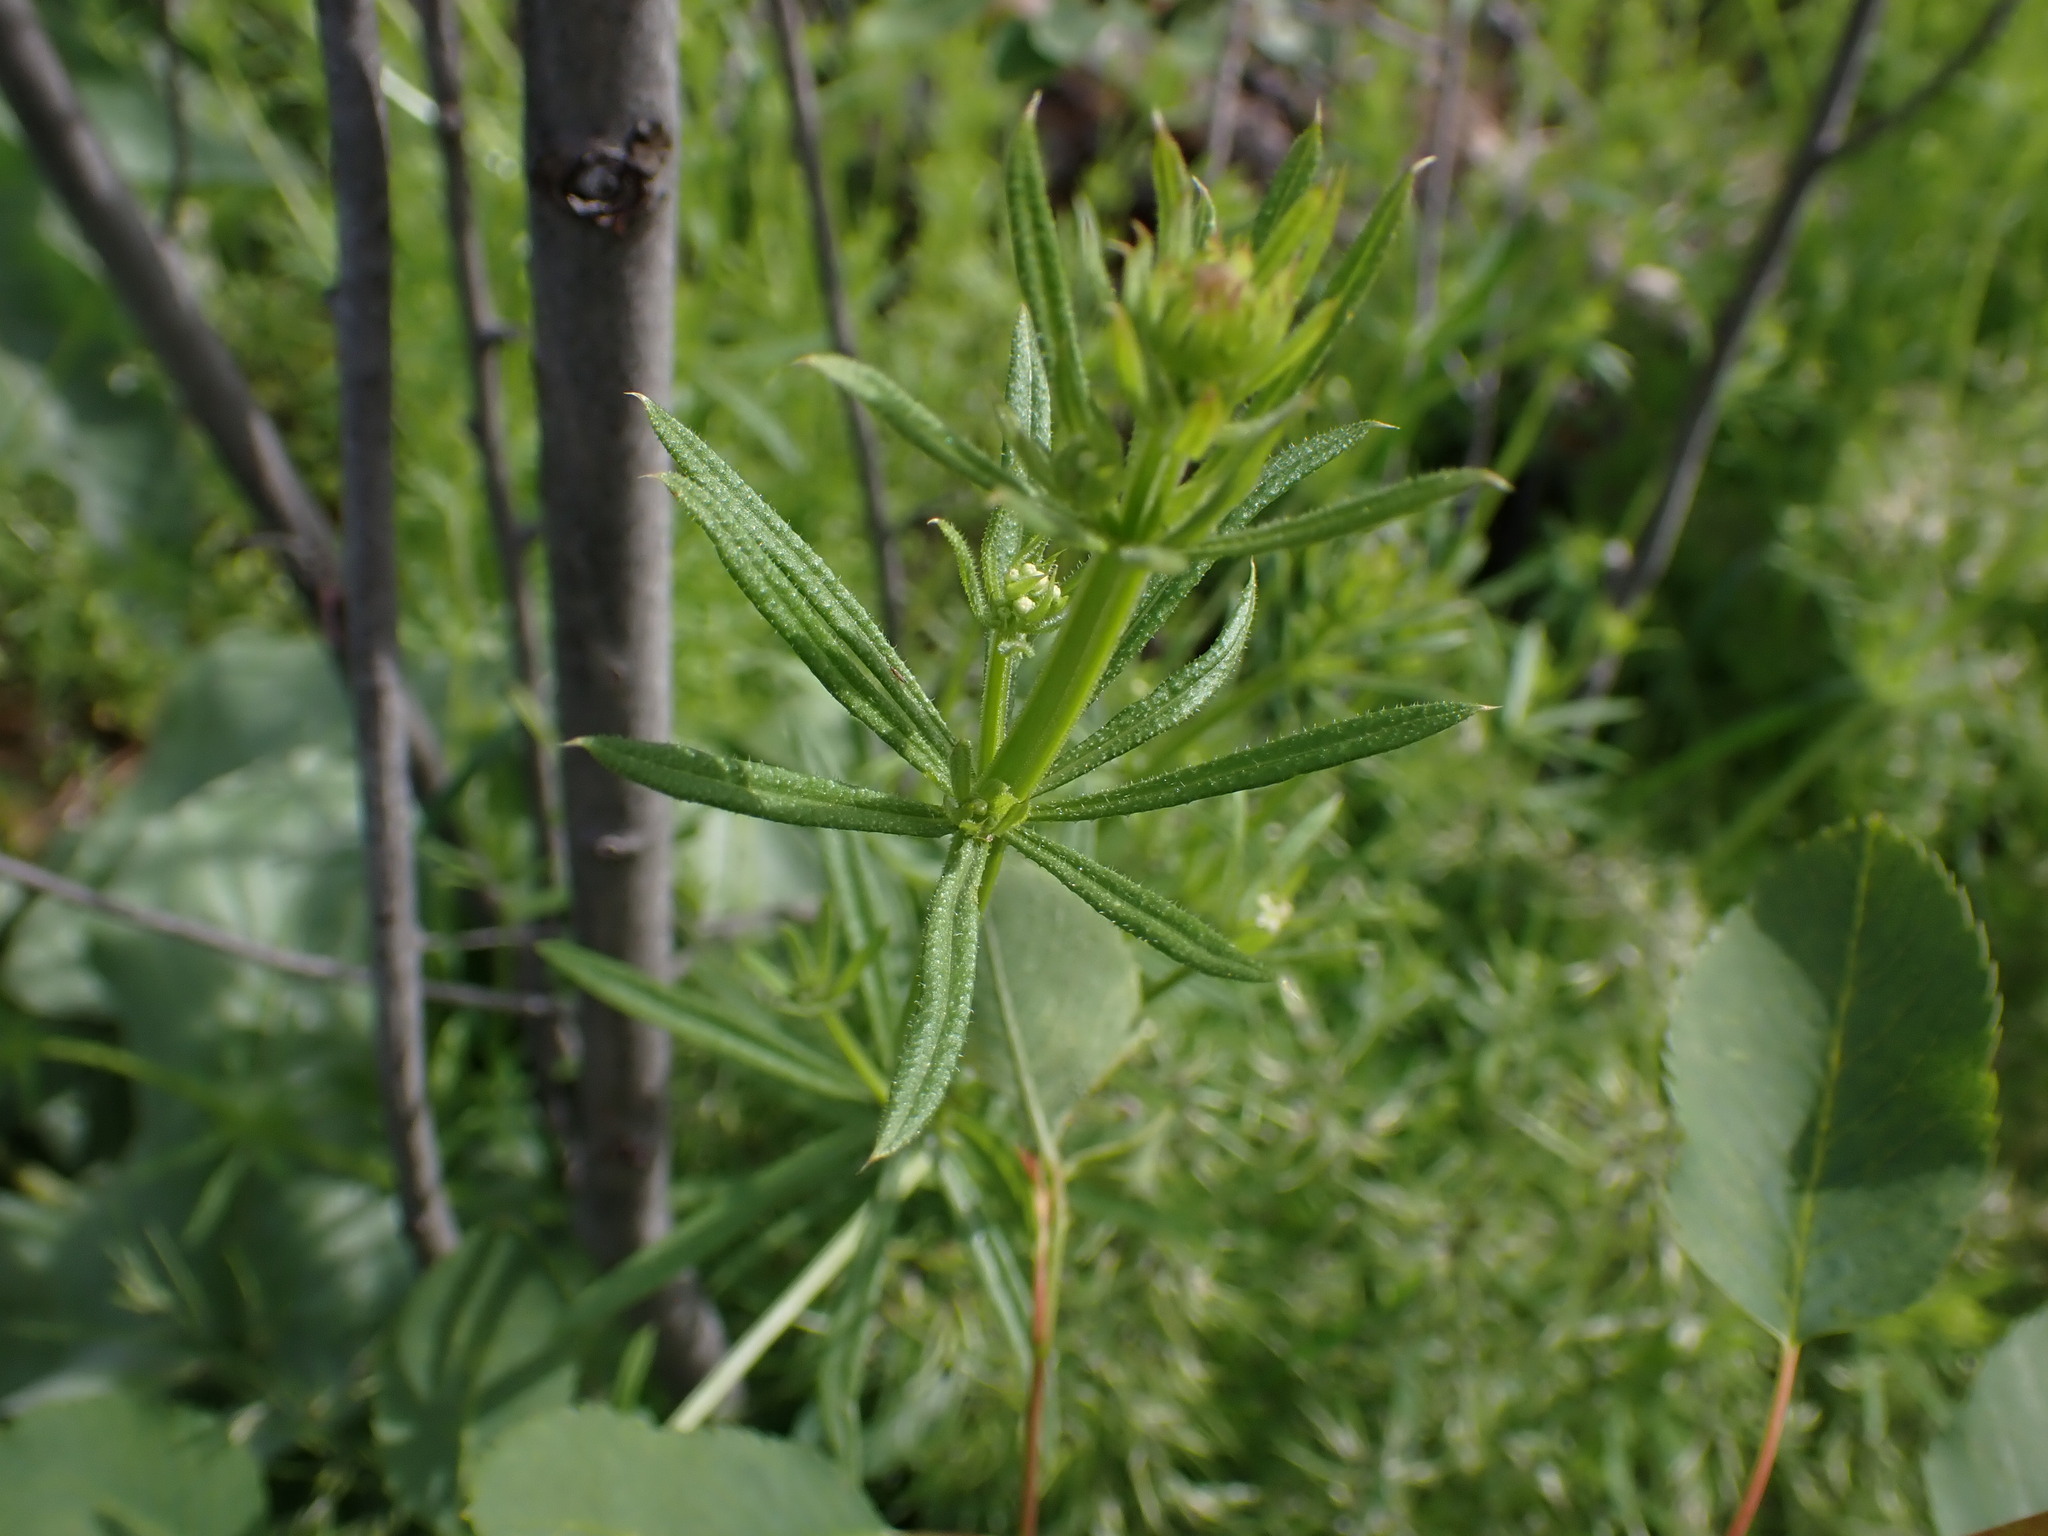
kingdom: Plantae
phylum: Tracheophyta
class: Magnoliopsida
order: Gentianales
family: Rubiaceae
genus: Galium
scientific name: Galium aparine
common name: Cleavers
